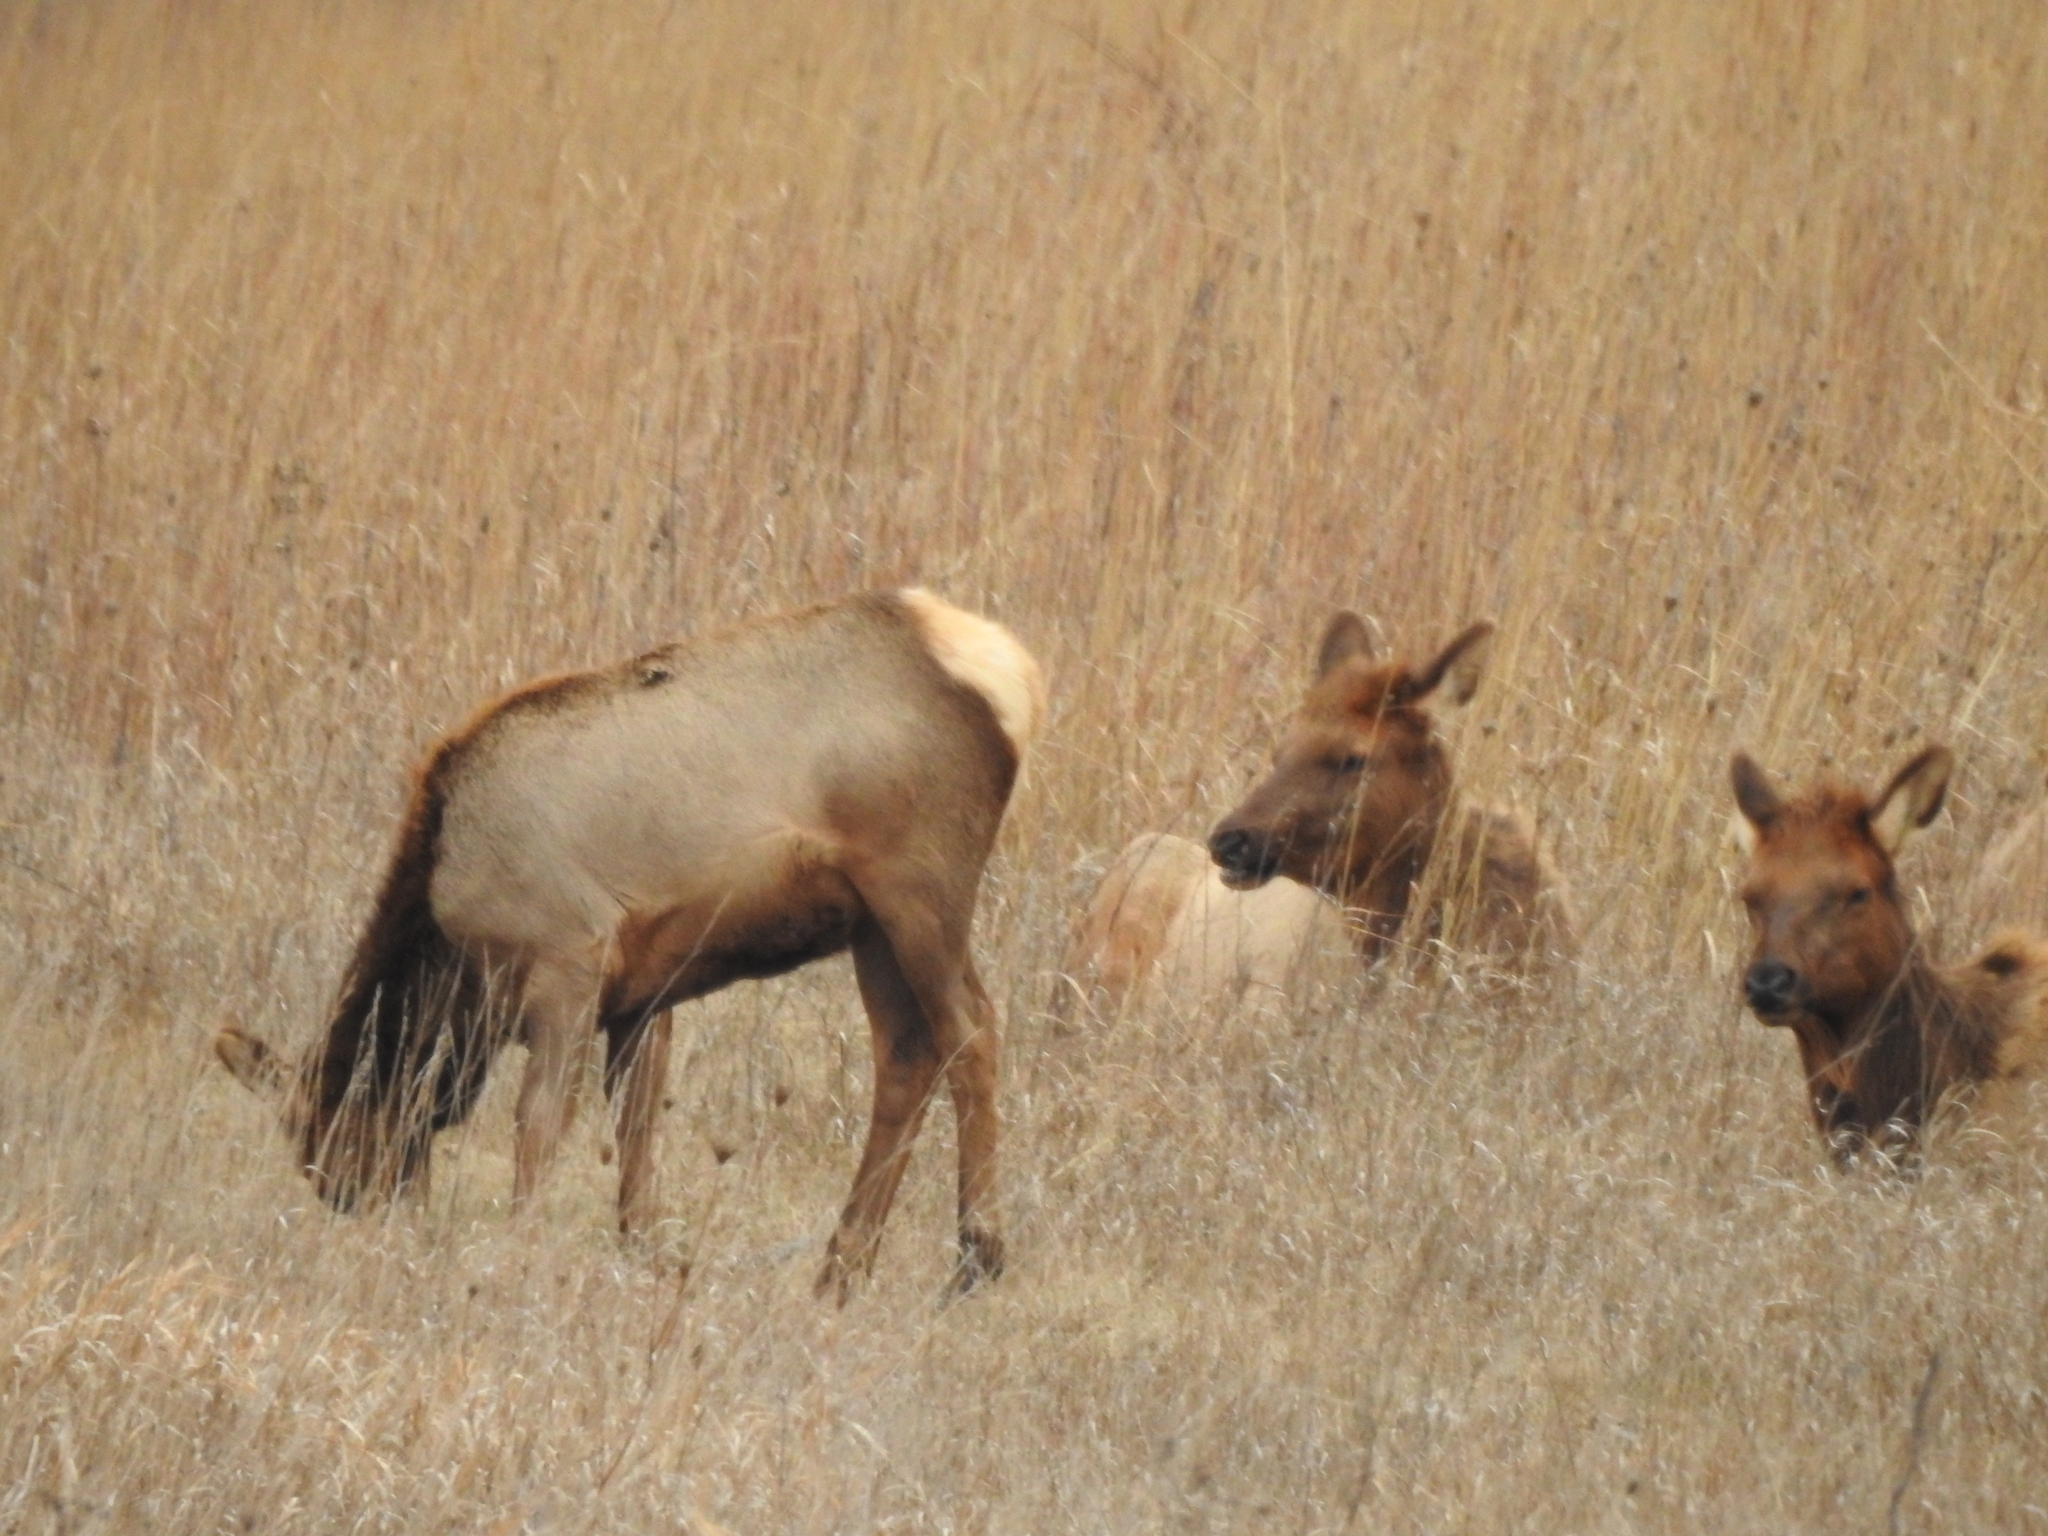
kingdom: Animalia
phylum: Chordata
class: Mammalia
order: Artiodactyla
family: Cervidae
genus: Cervus
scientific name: Cervus elaphus
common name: Red deer
